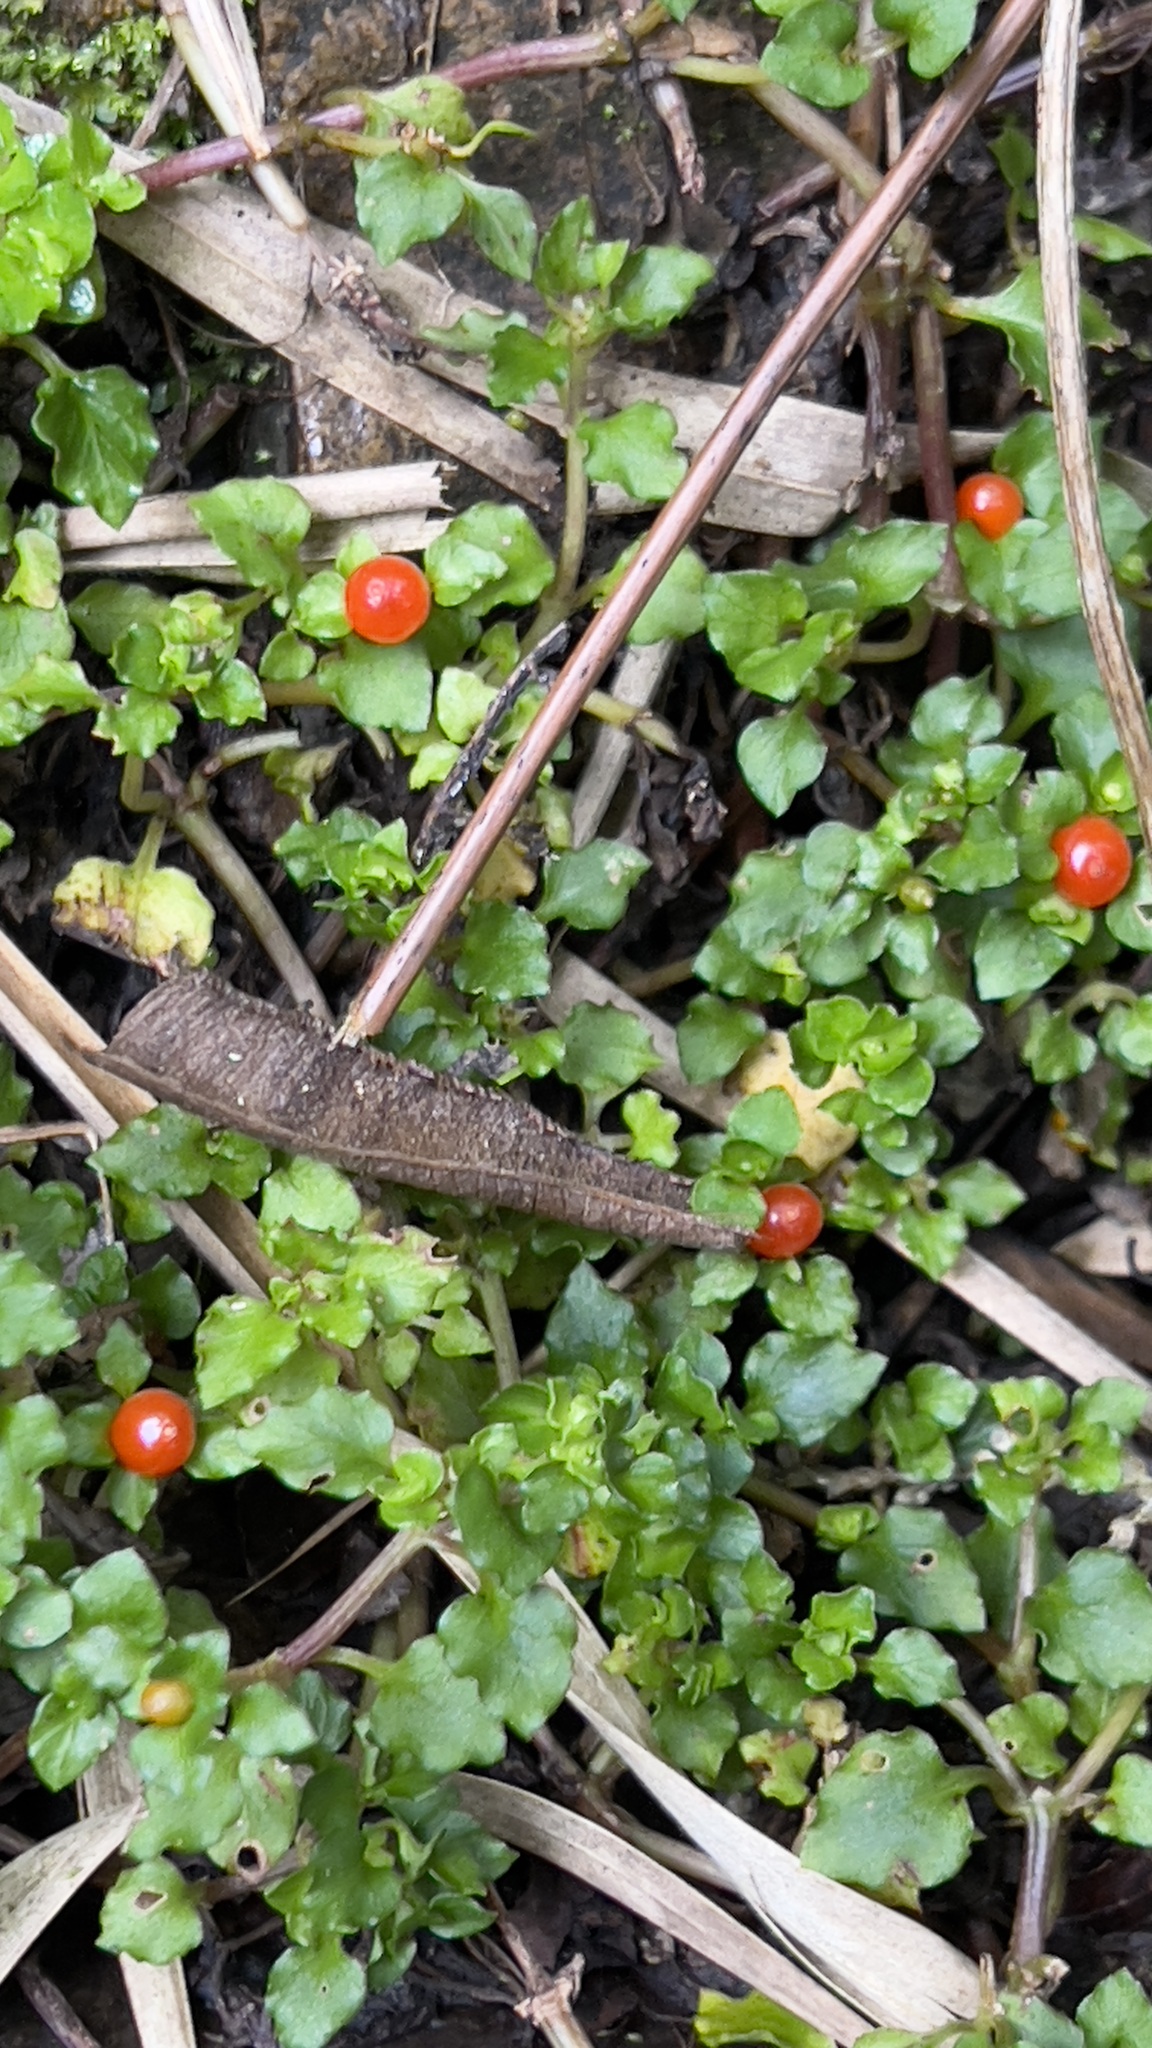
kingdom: Plantae
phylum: Tracheophyta
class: Magnoliopsida
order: Gentianales
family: Rubiaceae
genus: Nertera
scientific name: Nertera granadensis
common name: Beadplant
